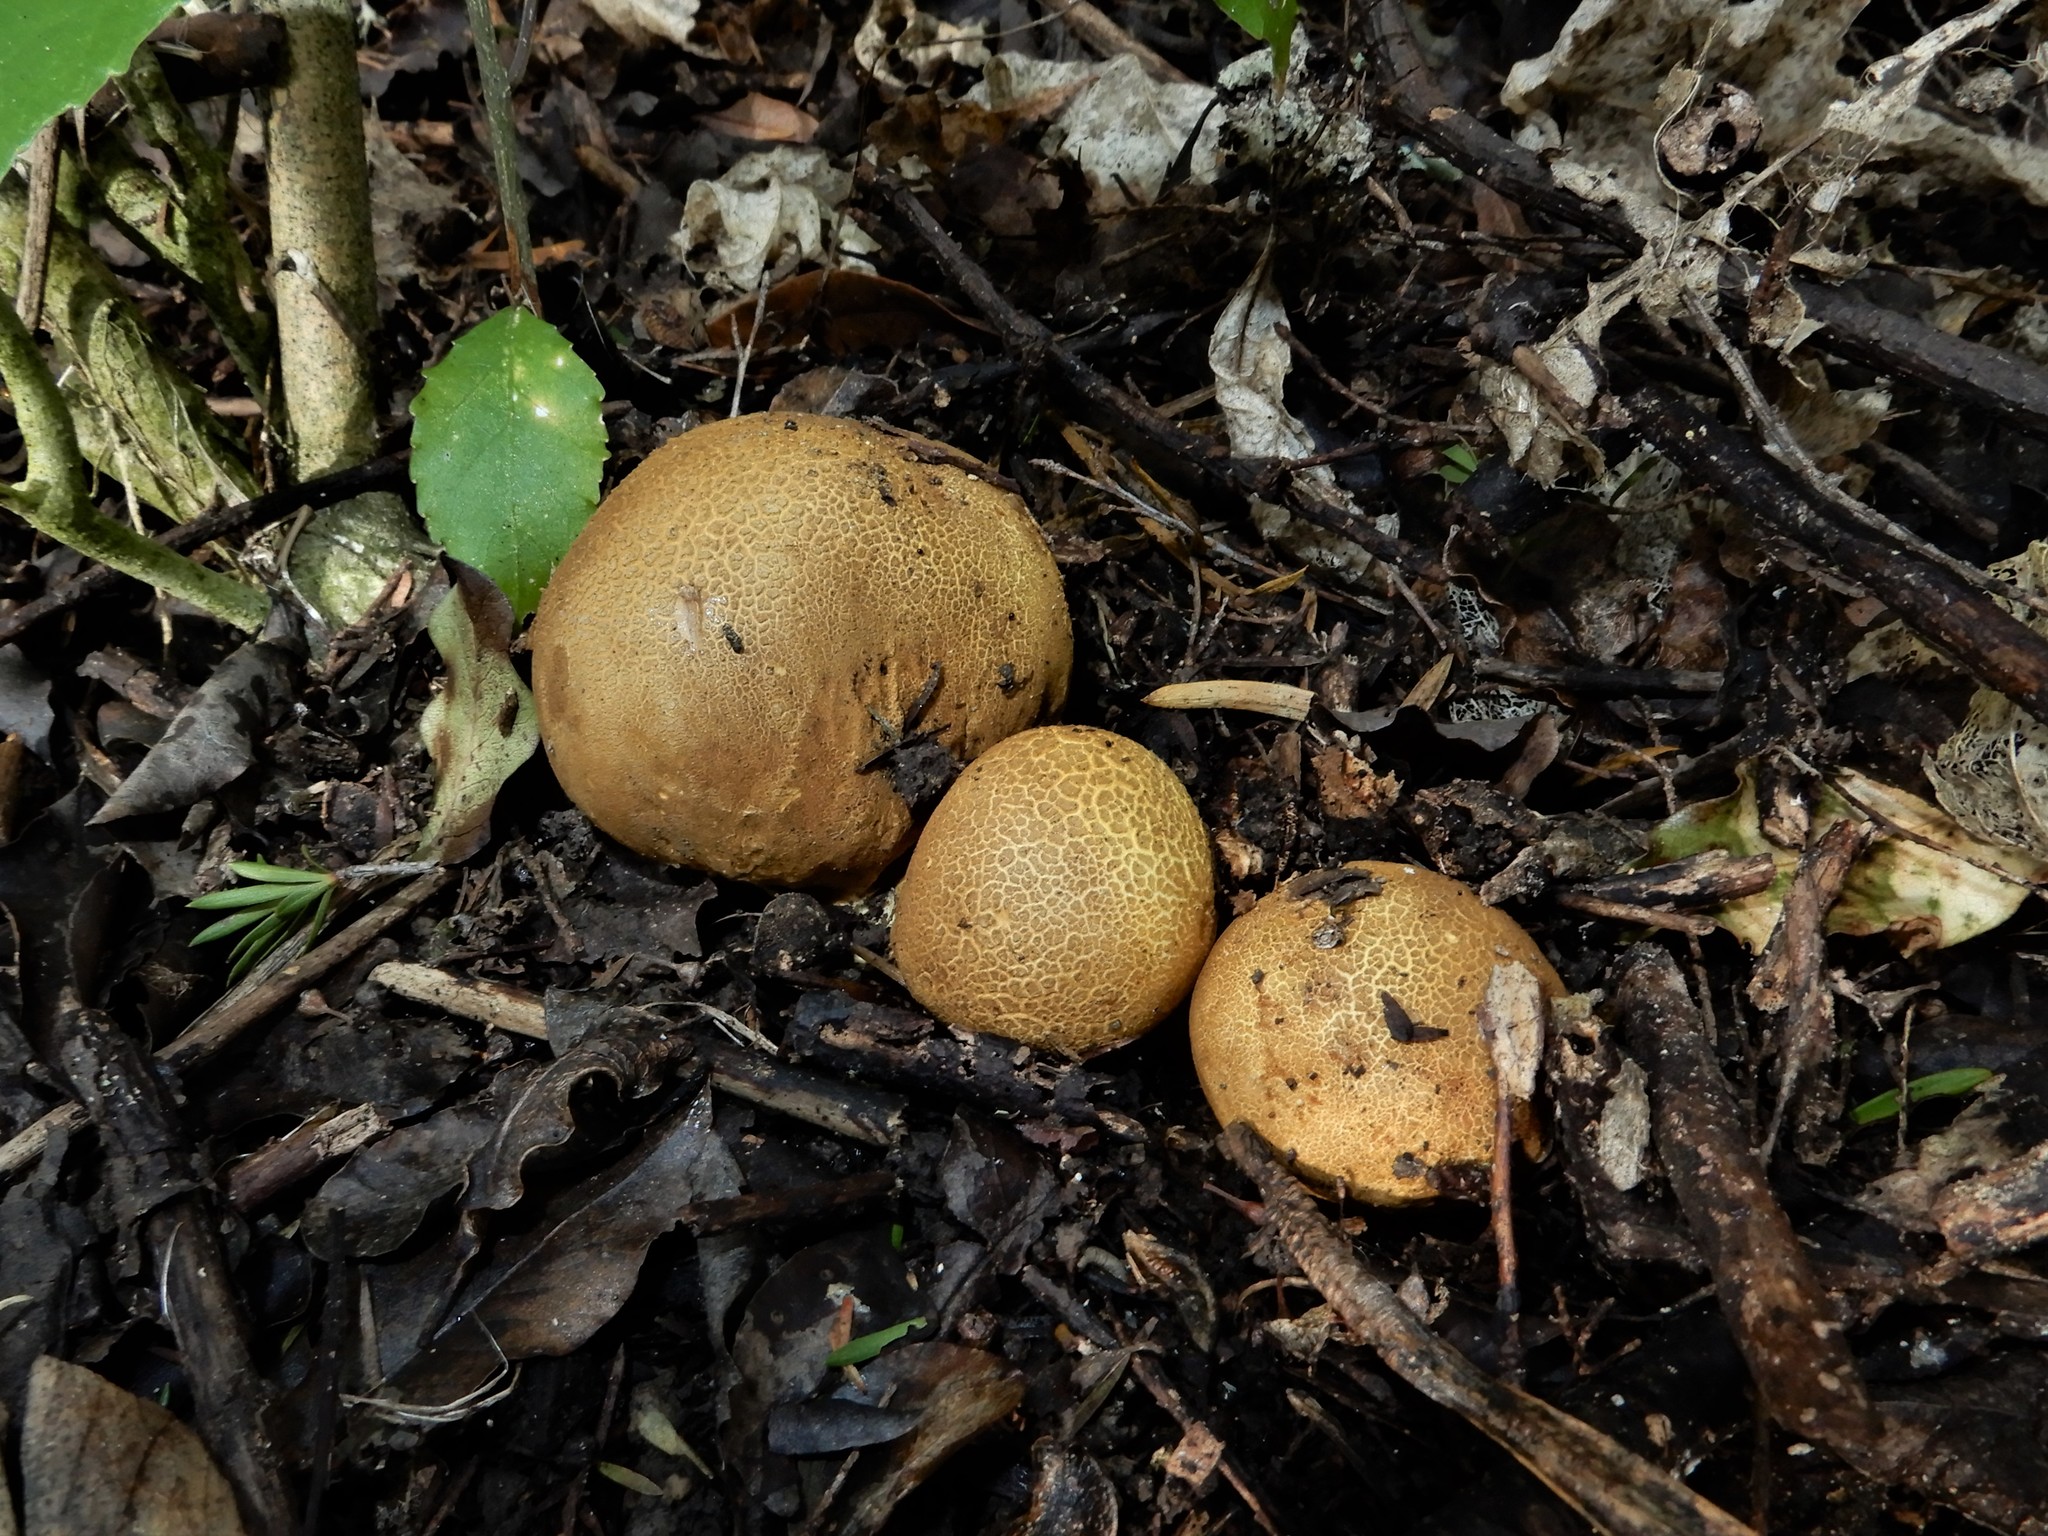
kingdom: Fungi
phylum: Basidiomycota
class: Agaricomycetes
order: Boletales
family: Sclerodermataceae
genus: Scleroderma
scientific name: Scleroderma
